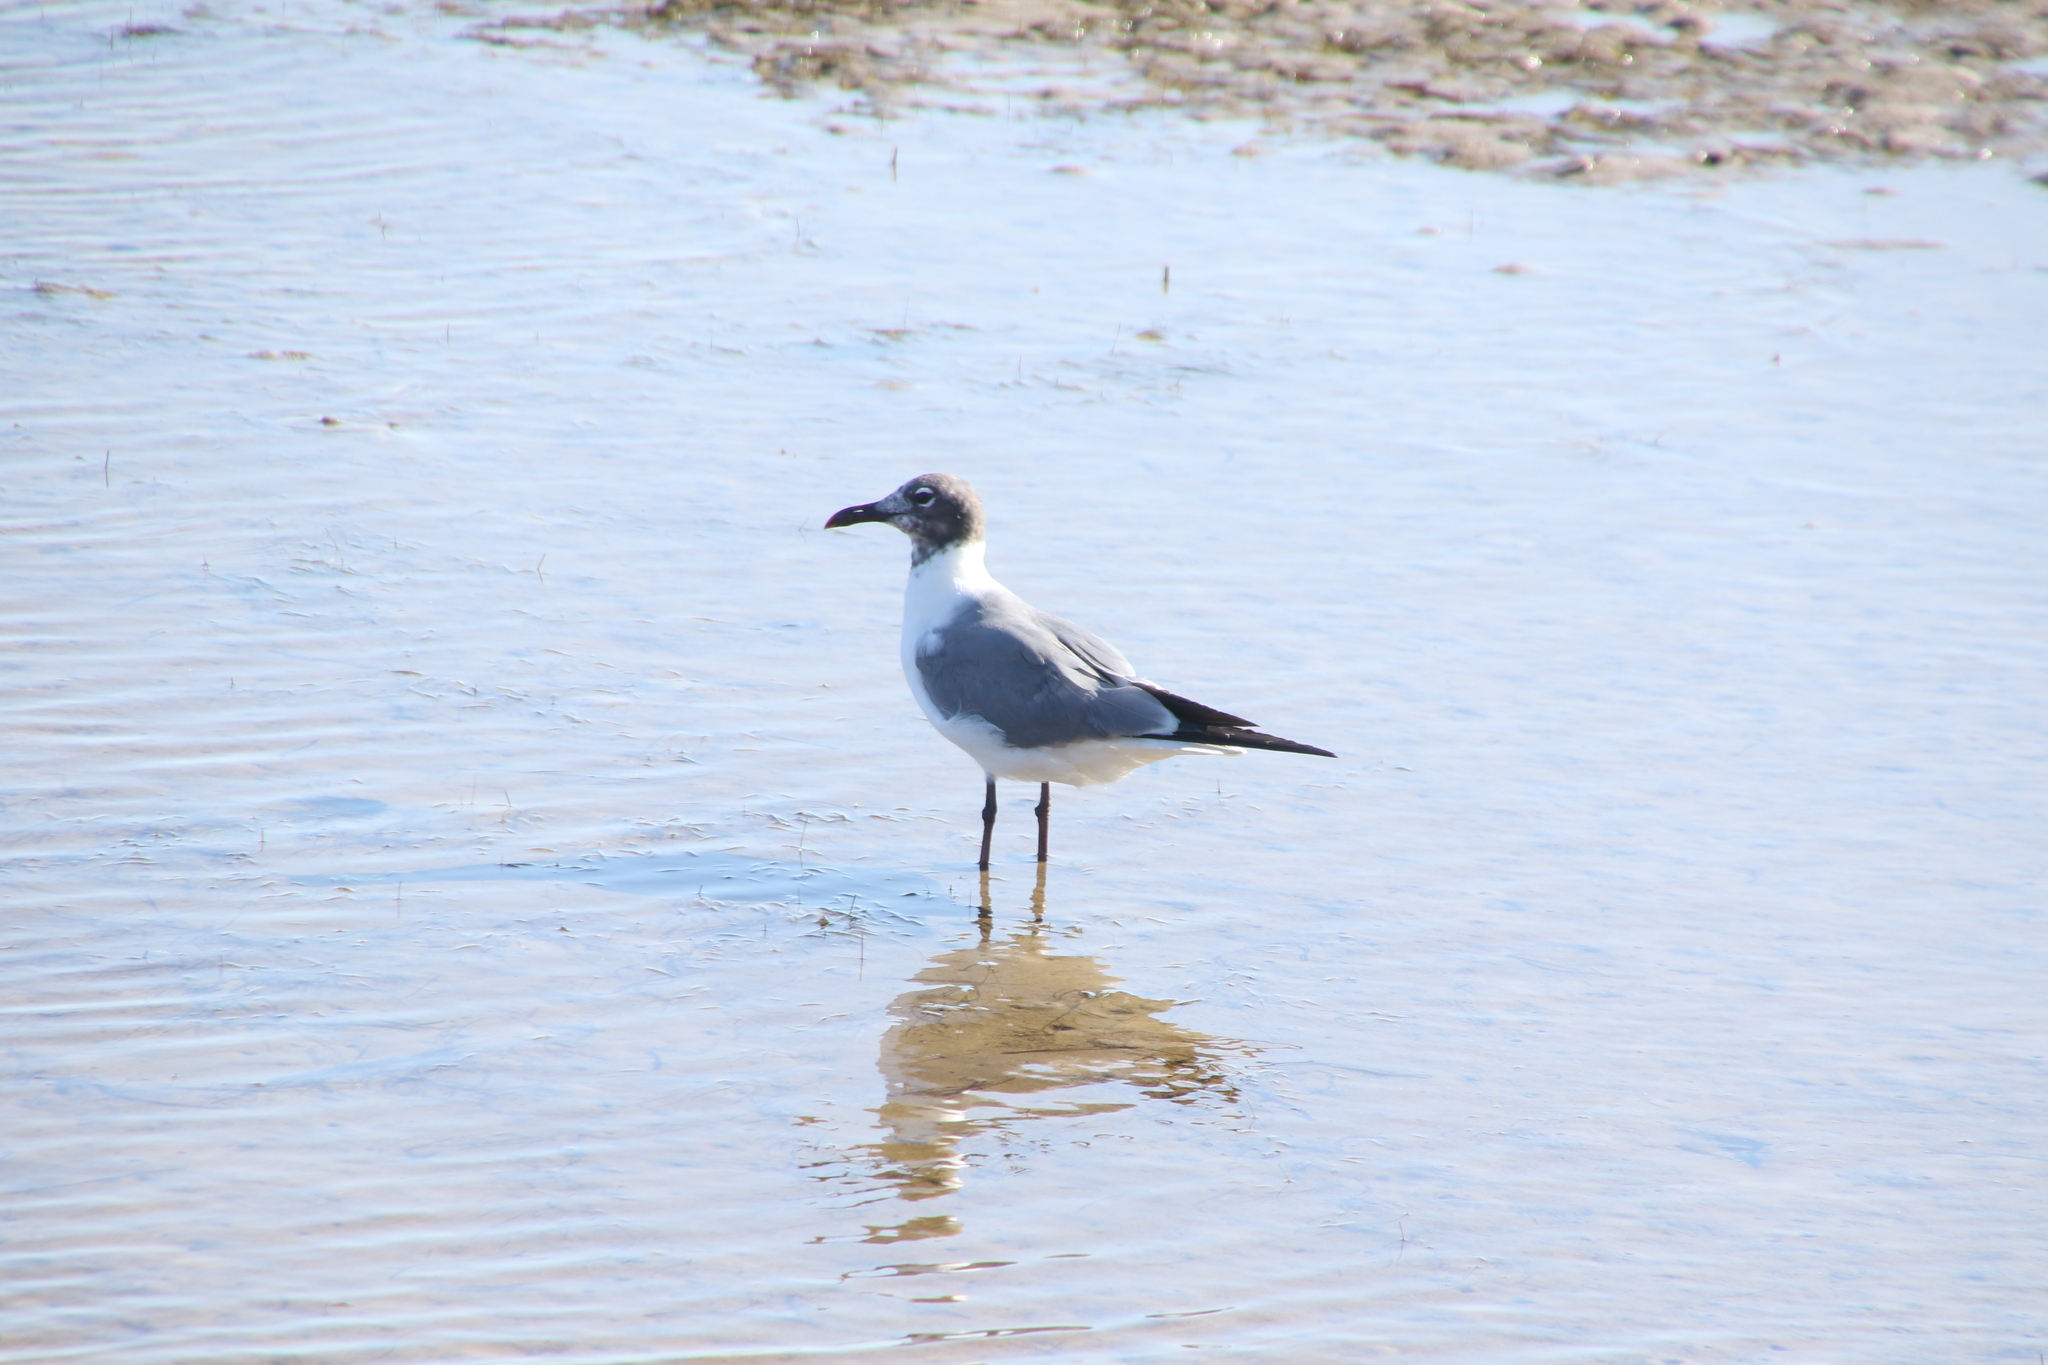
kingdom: Animalia
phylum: Chordata
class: Aves
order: Charadriiformes
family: Laridae
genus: Leucophaeus
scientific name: Leucophaeus atricilla
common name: Laughing gull
